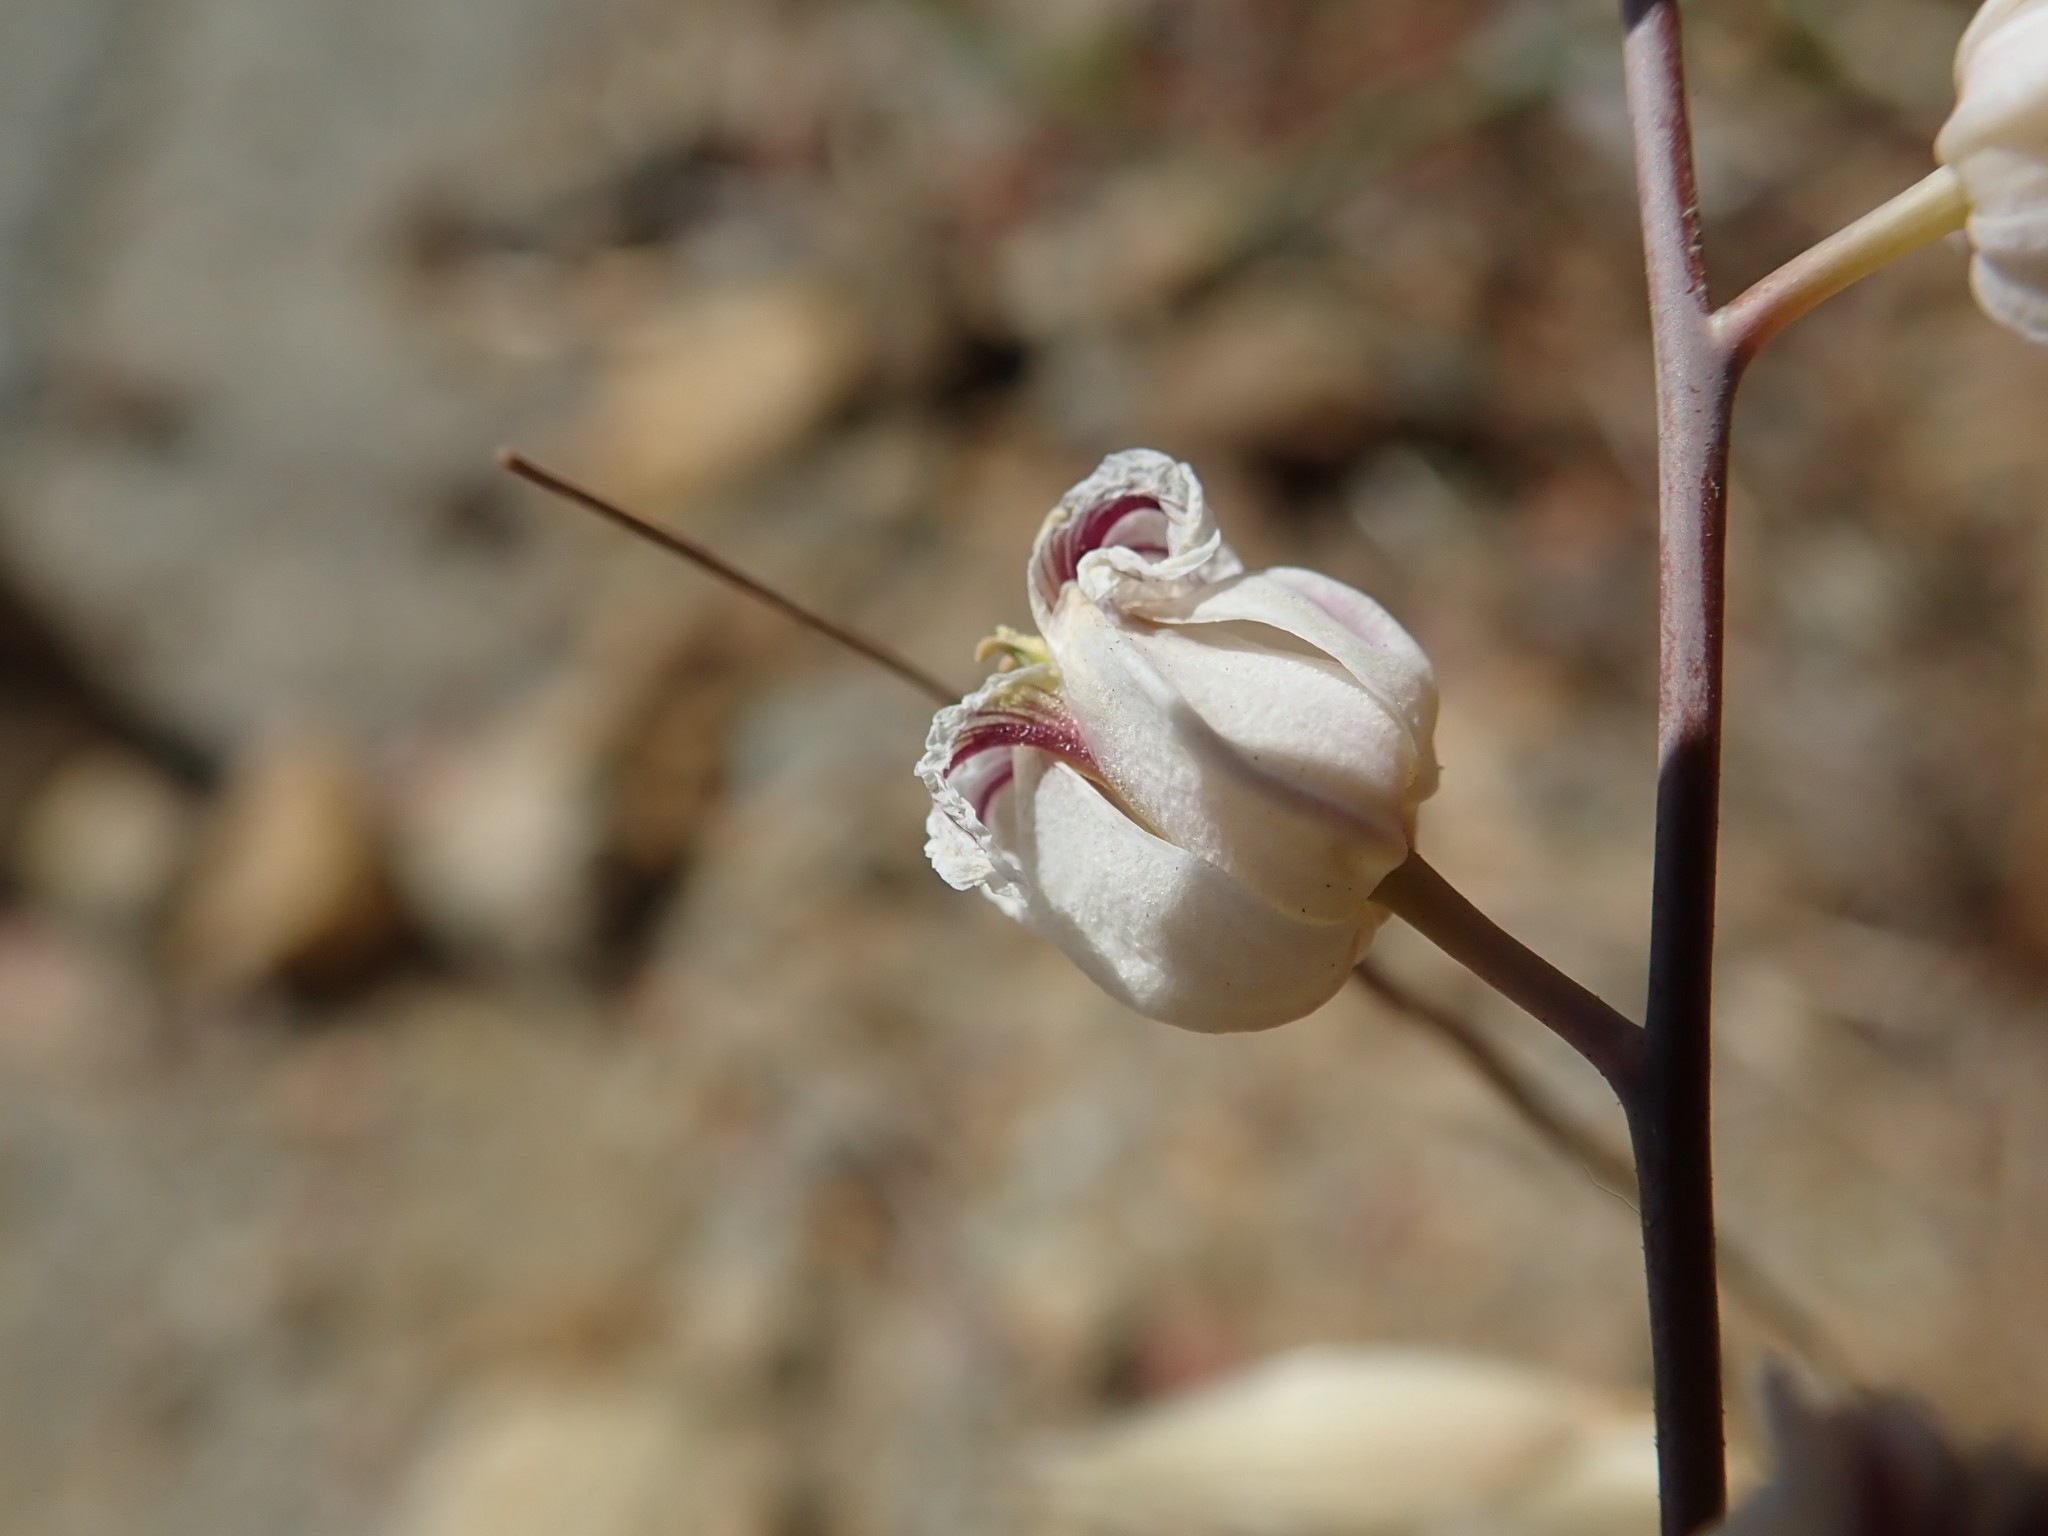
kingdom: Plantae
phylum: Tracheophyta
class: Magnoliopsida
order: Brassicales
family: Brassicaceae
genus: Streptanthus
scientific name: Streptanthus glandulosus
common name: Jewel-flower
